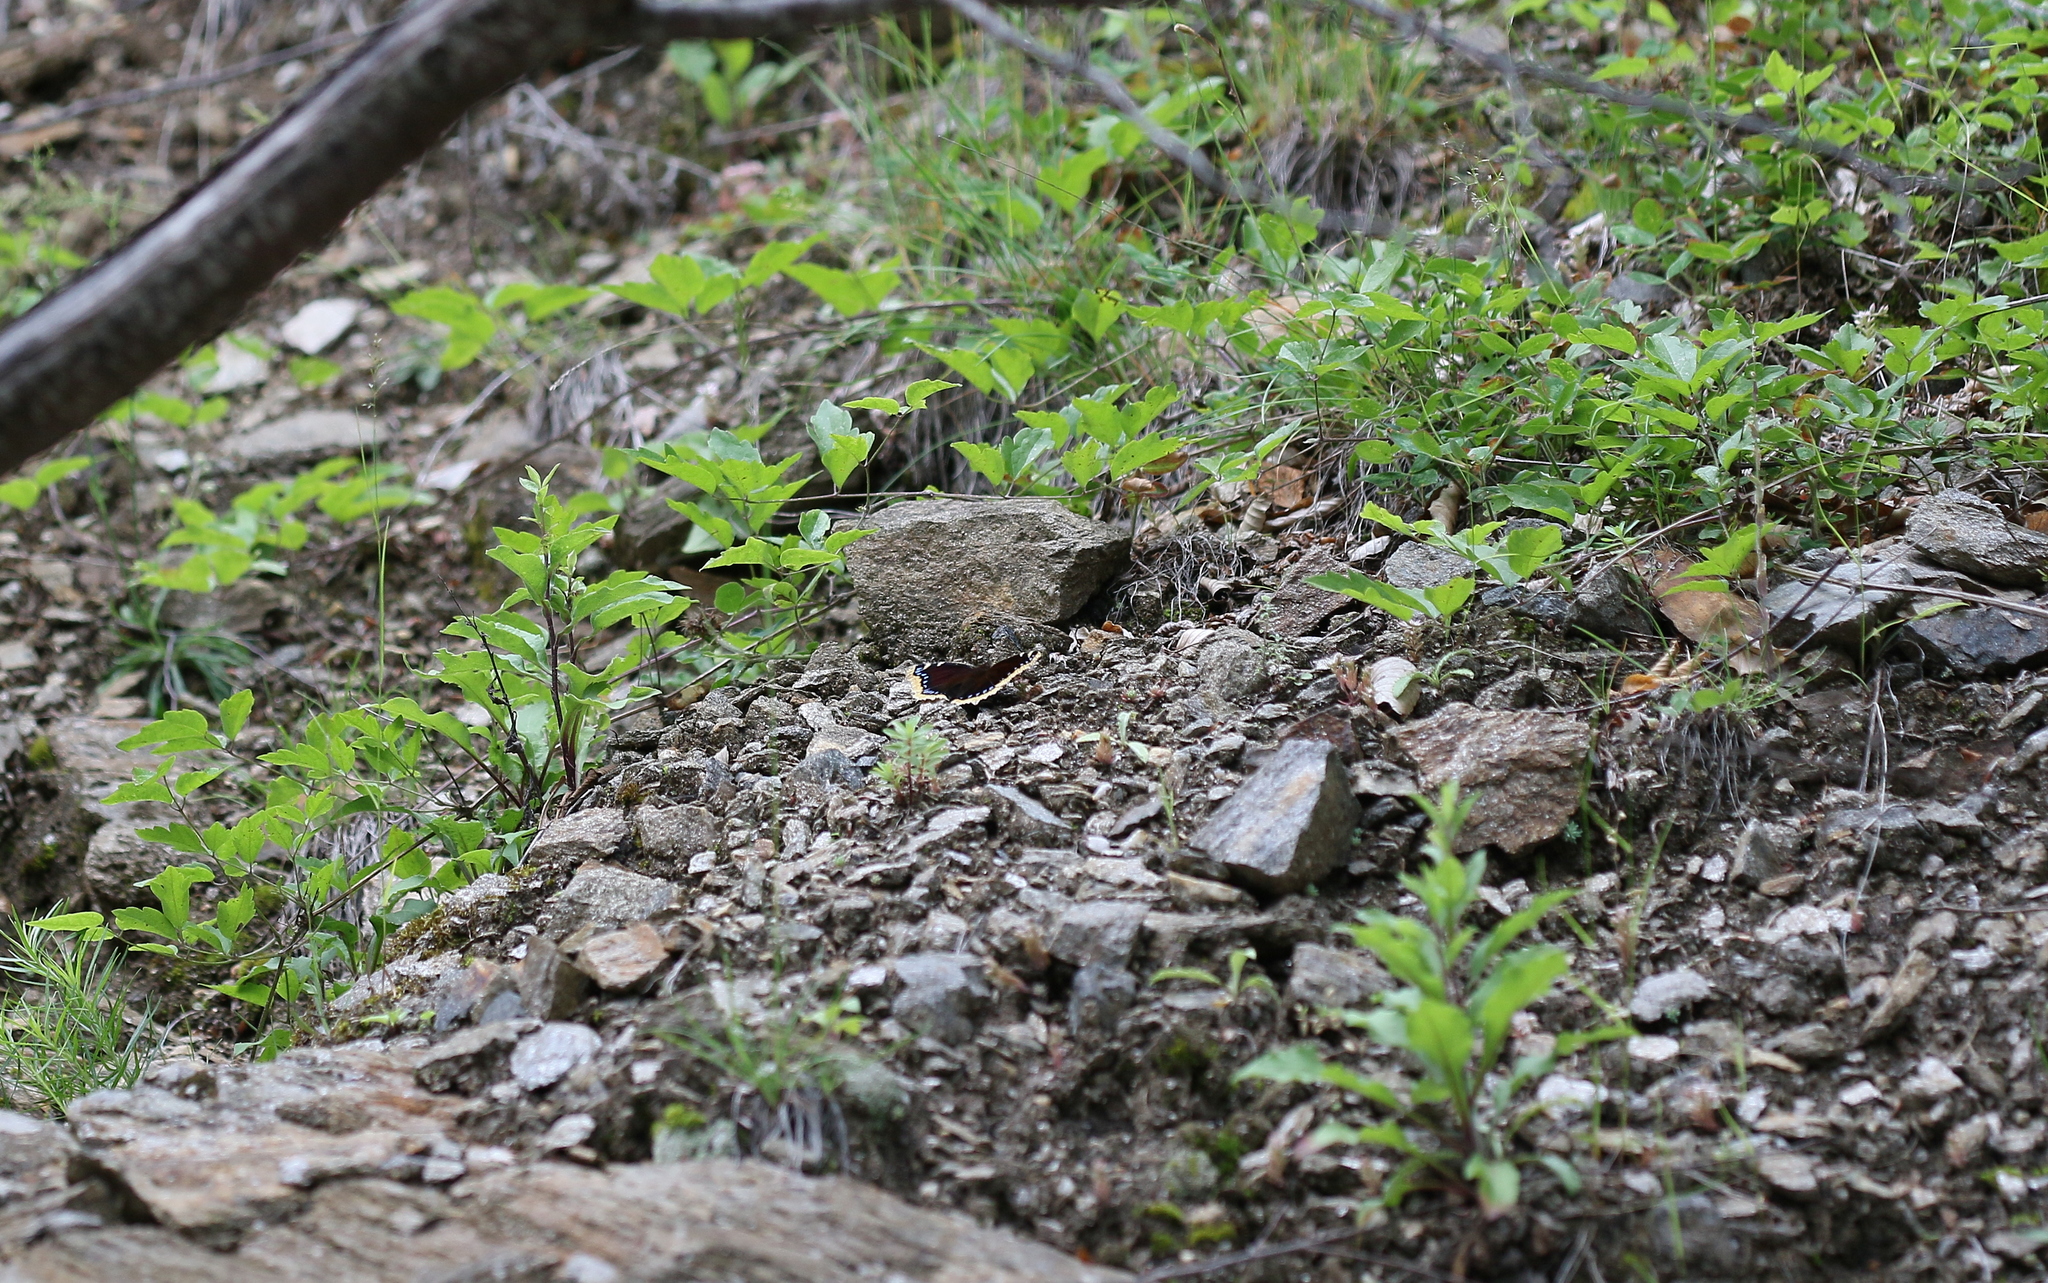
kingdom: Animalia
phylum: Arthropoda
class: Insecta
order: Lepidoptera
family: Nymphalidae
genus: Nymphalis
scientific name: Nymphalis antiopa
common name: Camberwell beauty
